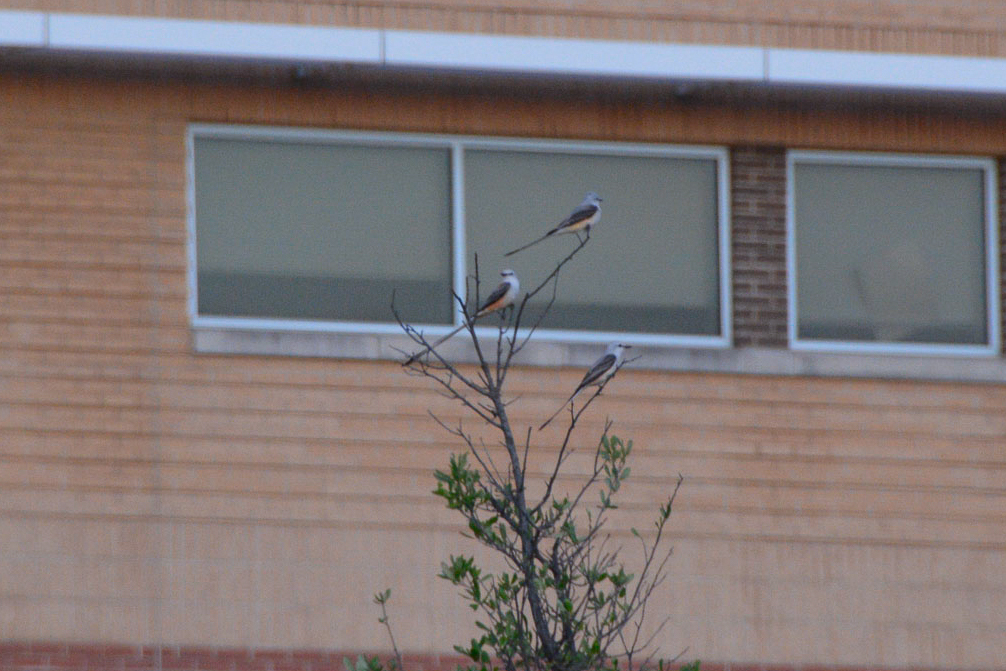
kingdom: Animalia
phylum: Chordata
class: Aves
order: Passeriformes
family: Tyrannidae
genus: Tyrannus
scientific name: Tyrannus forficatus
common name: Scissor-tailed flycatcher
